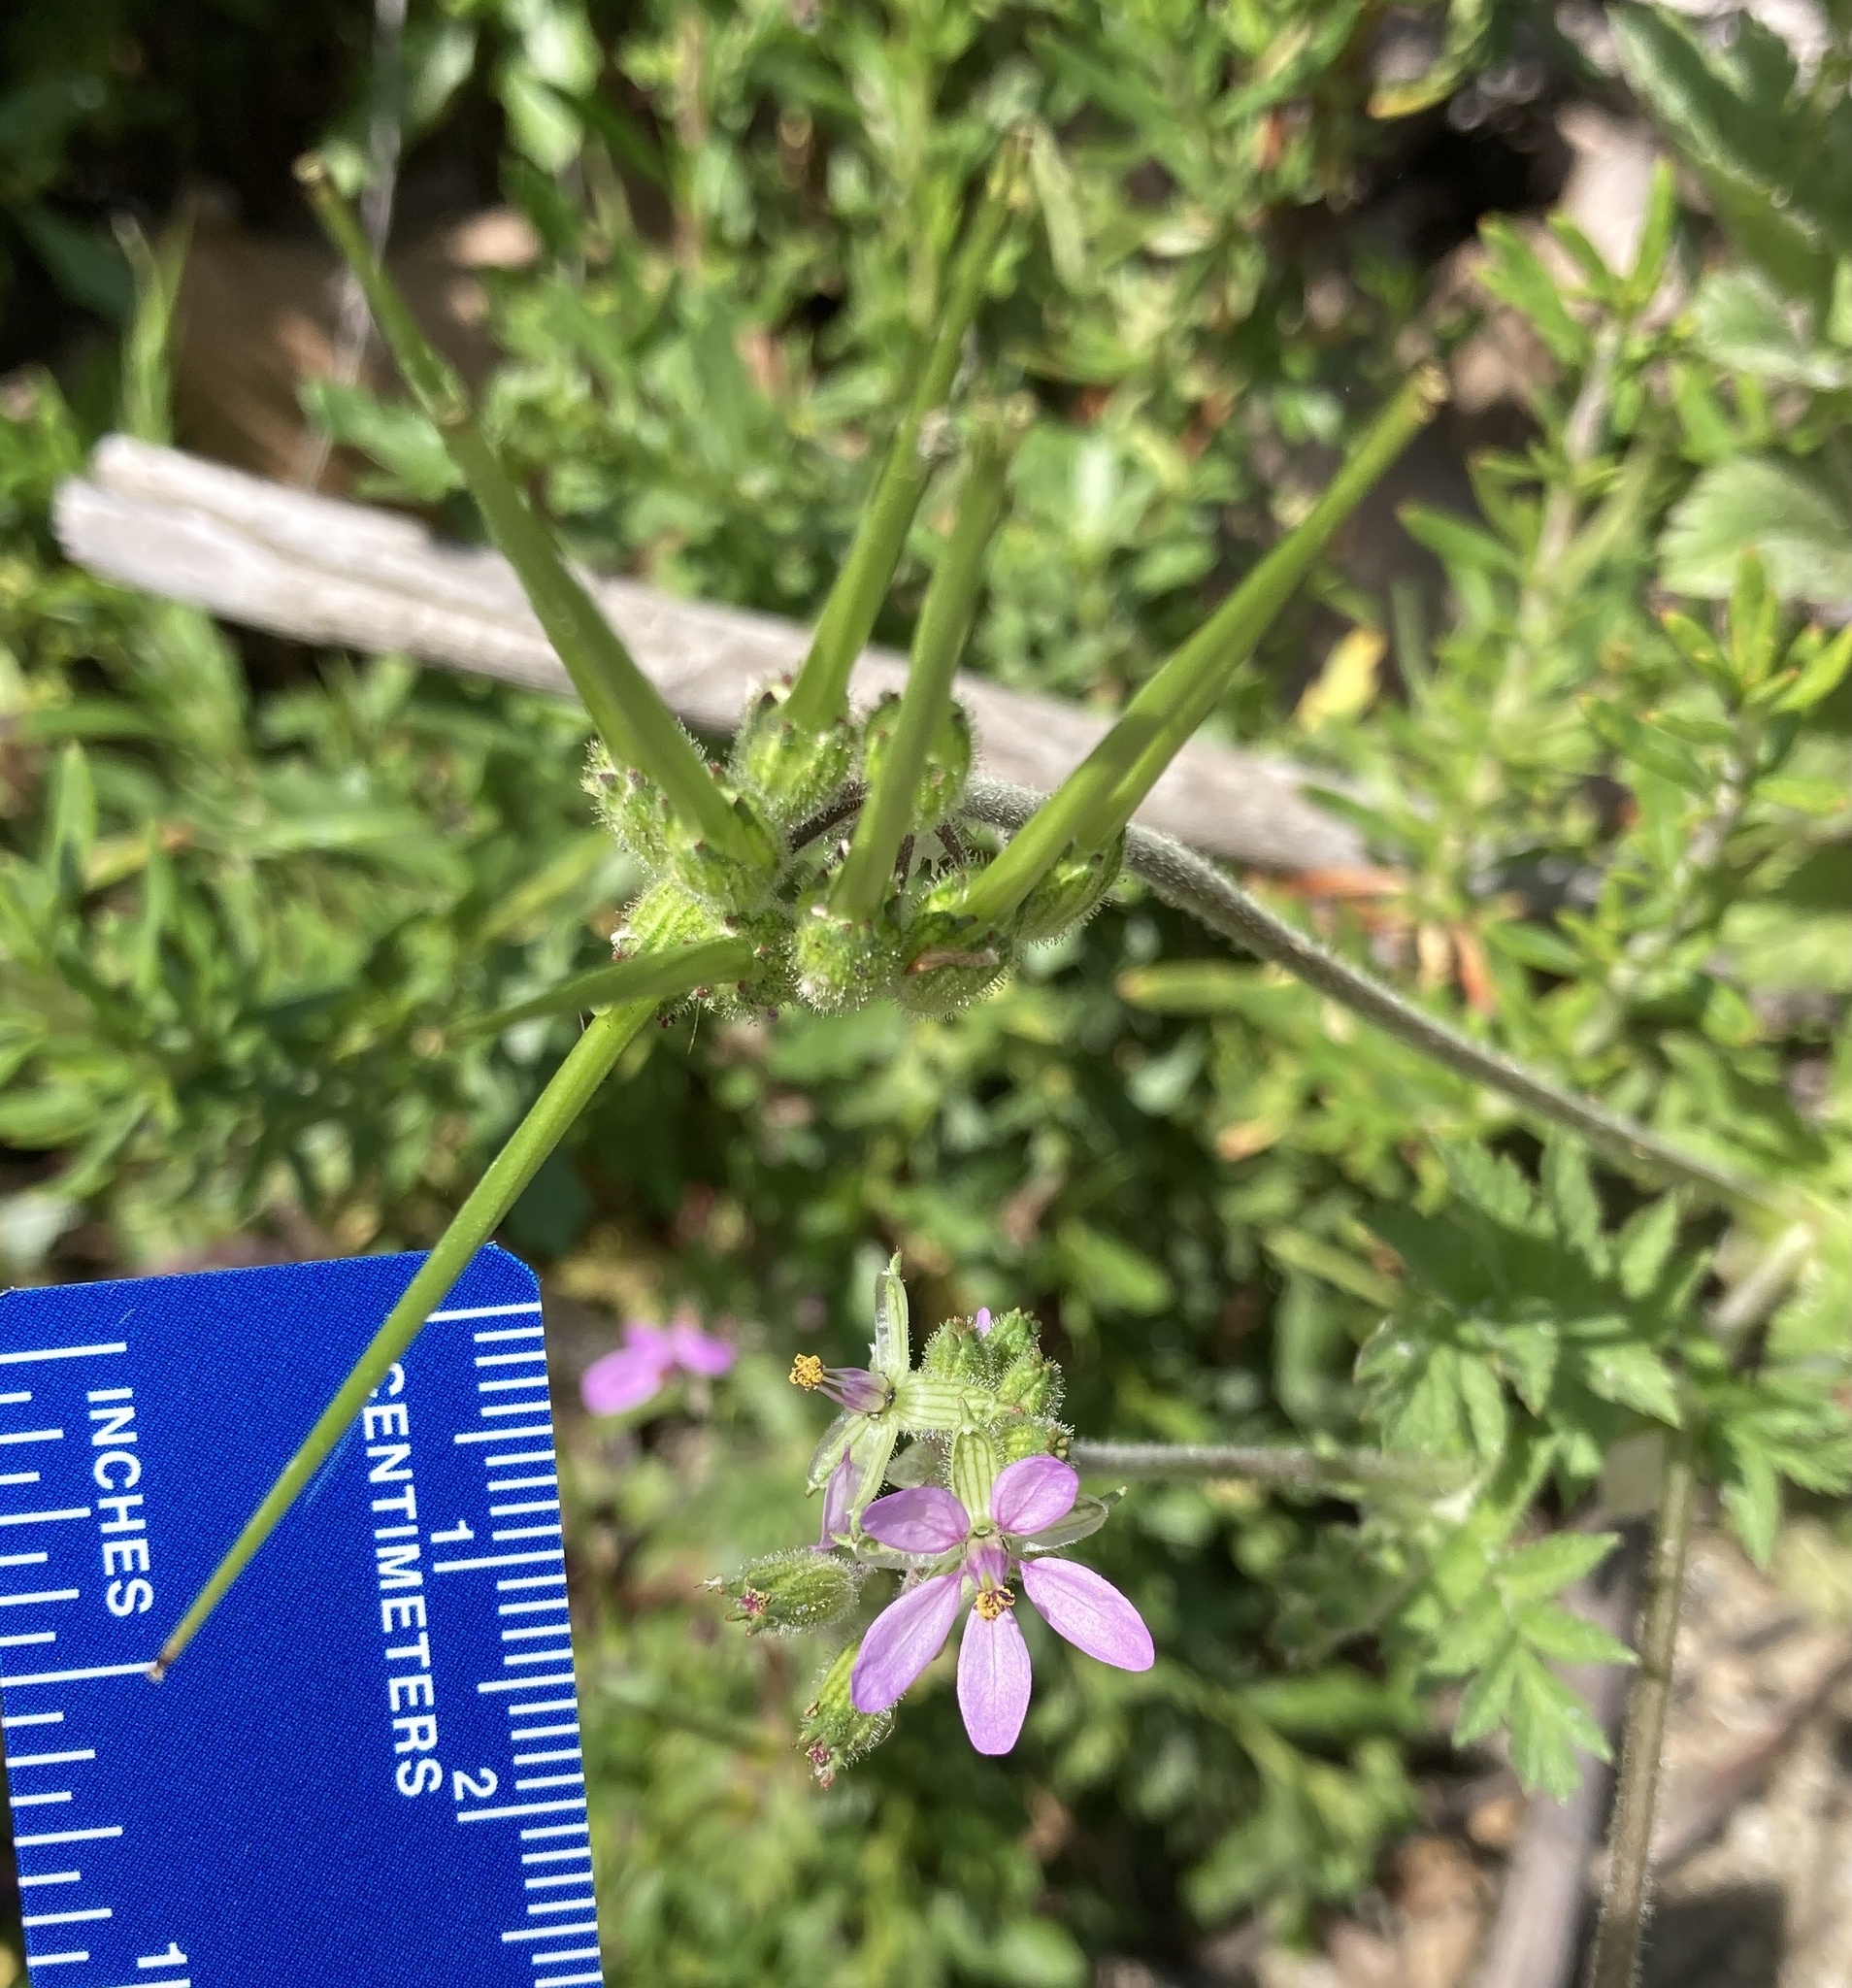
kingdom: Plantae
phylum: Tracheophyta
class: Magnoliopsida
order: Geraniales
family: Geraniaceae
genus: Erodium
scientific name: Erodium moschatum
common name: Musk stork's-bill
